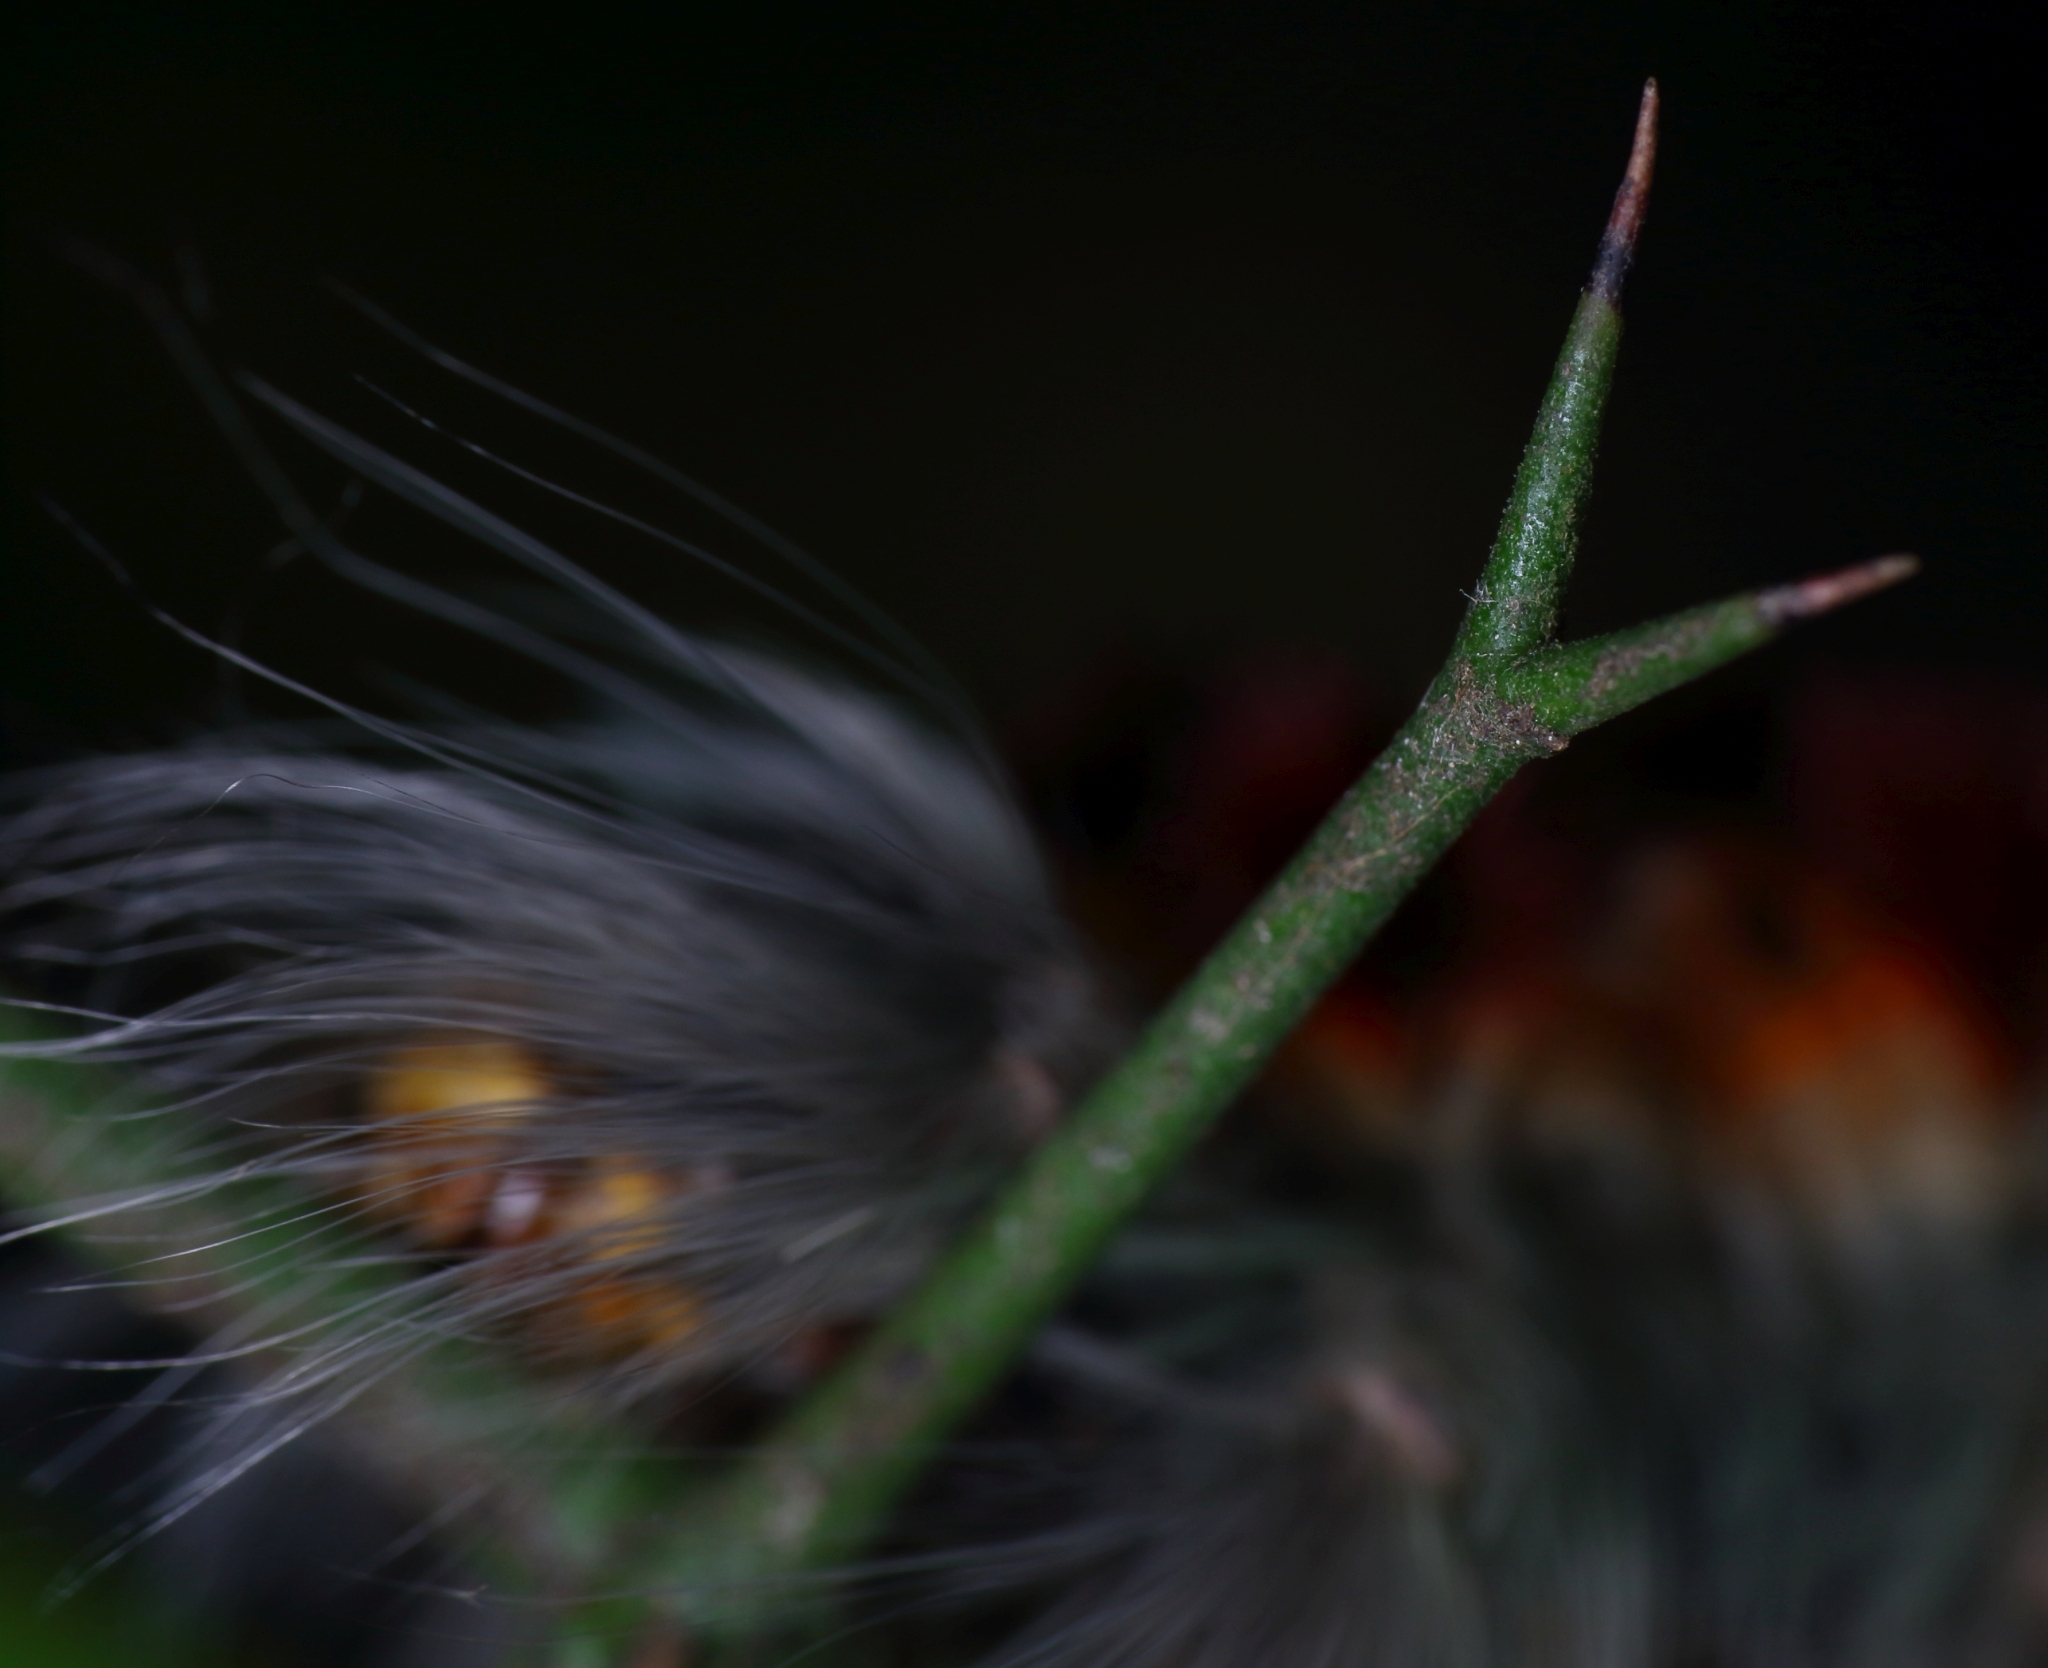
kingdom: Animalia
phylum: Arthropoda
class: Insecta
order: Lepidoptera
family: Lasiocampidae
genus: Eutricha
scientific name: Eutricha obscura
